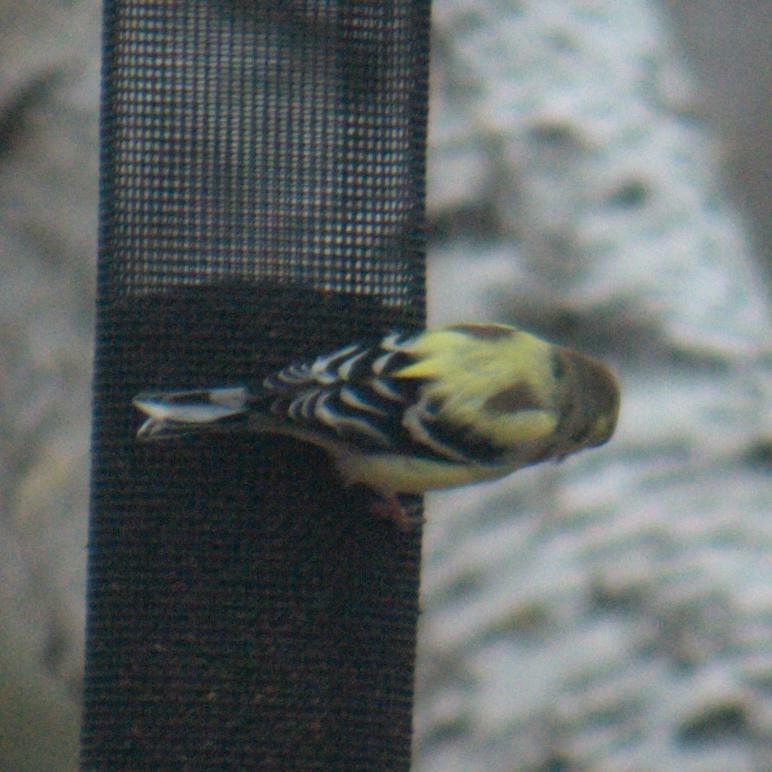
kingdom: Animalia
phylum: Chordata
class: Aves
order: Passeriformes
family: Fringillidae
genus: Spinus
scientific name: Spinus tristis
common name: American goldfinch
